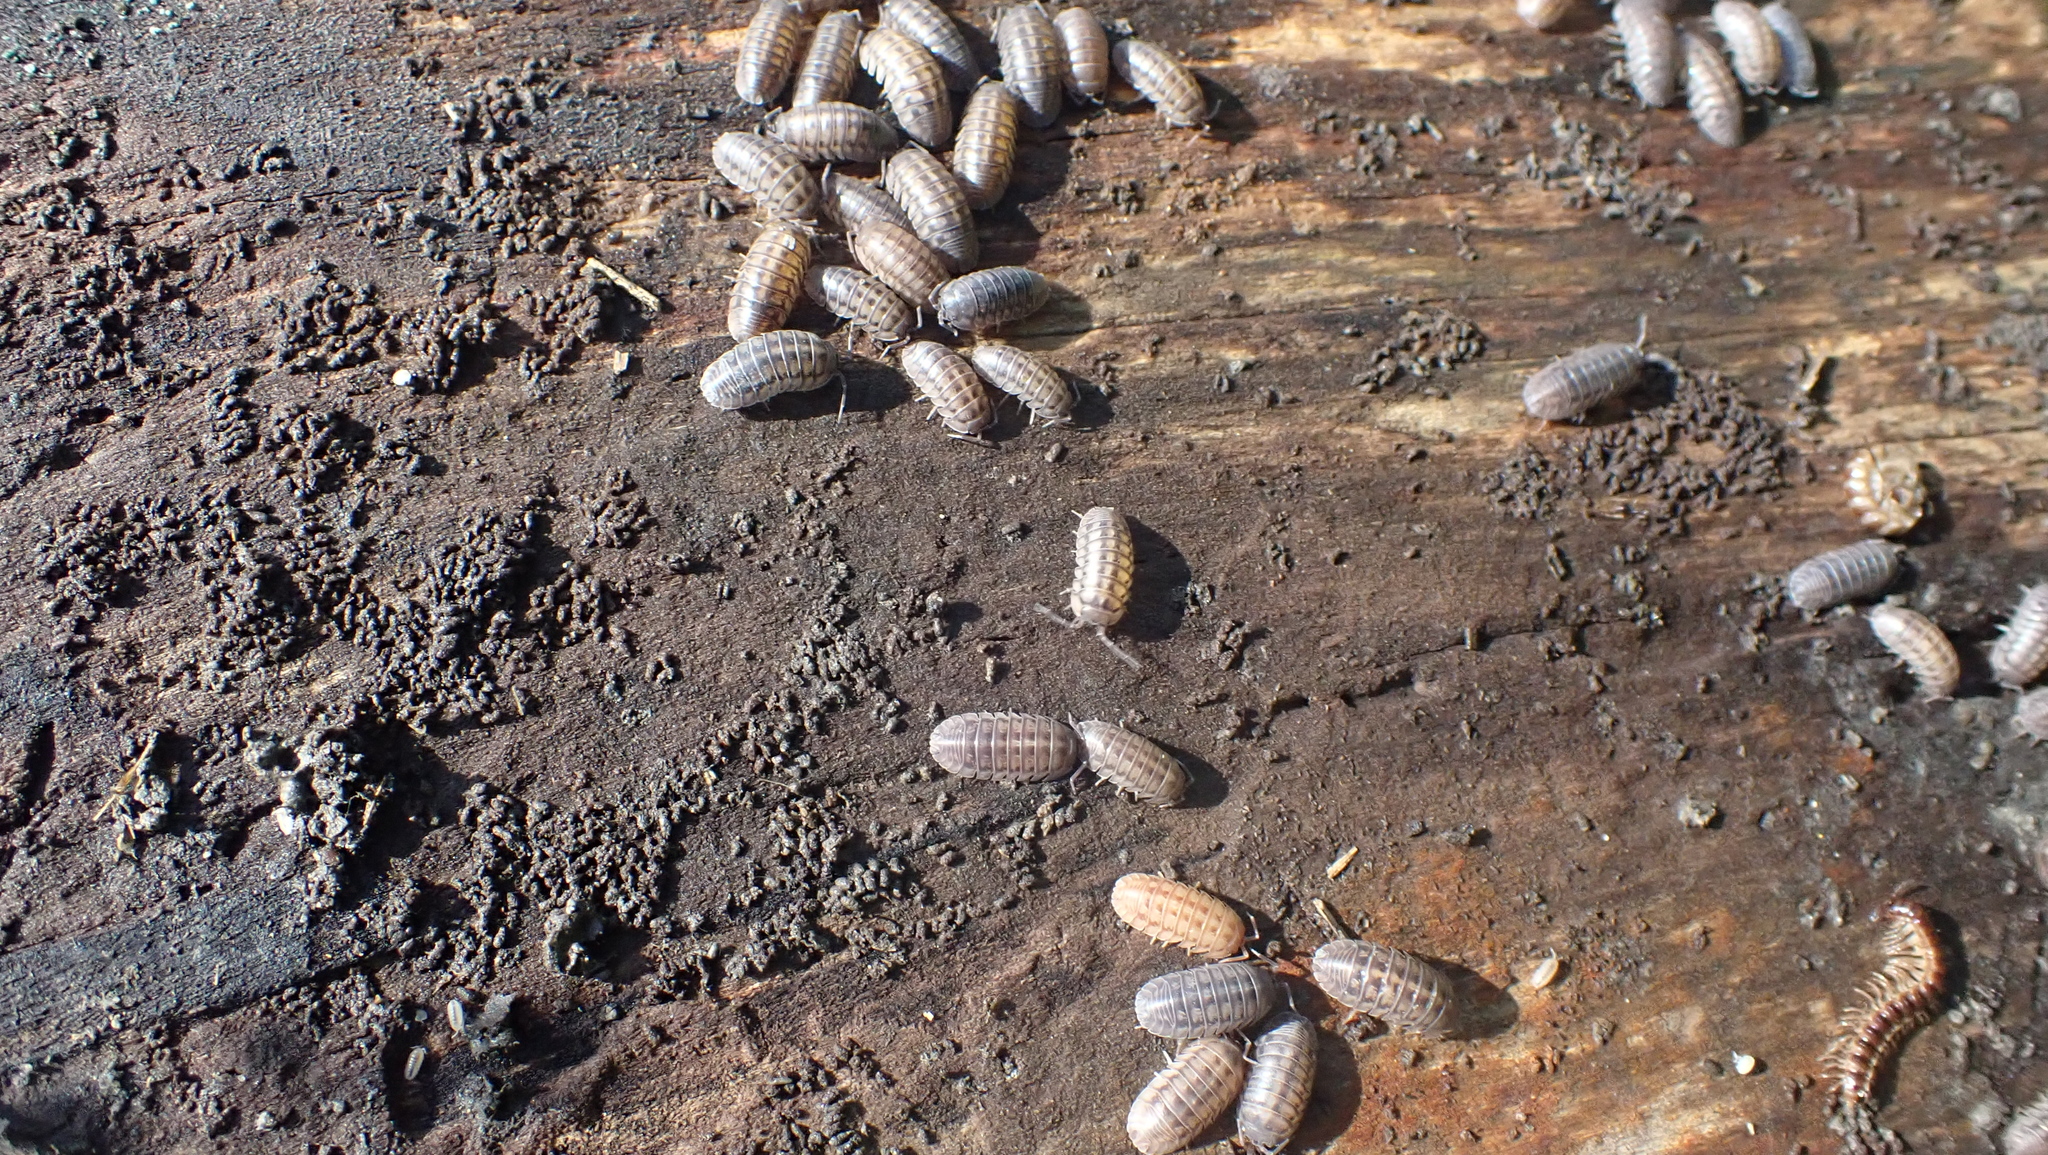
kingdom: Animalia
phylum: Arthropoda
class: Malacostraca
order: Isopoda
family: Armadillidiidae
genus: Armadillidium
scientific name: Armadillidium nasatum
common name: Isopod
